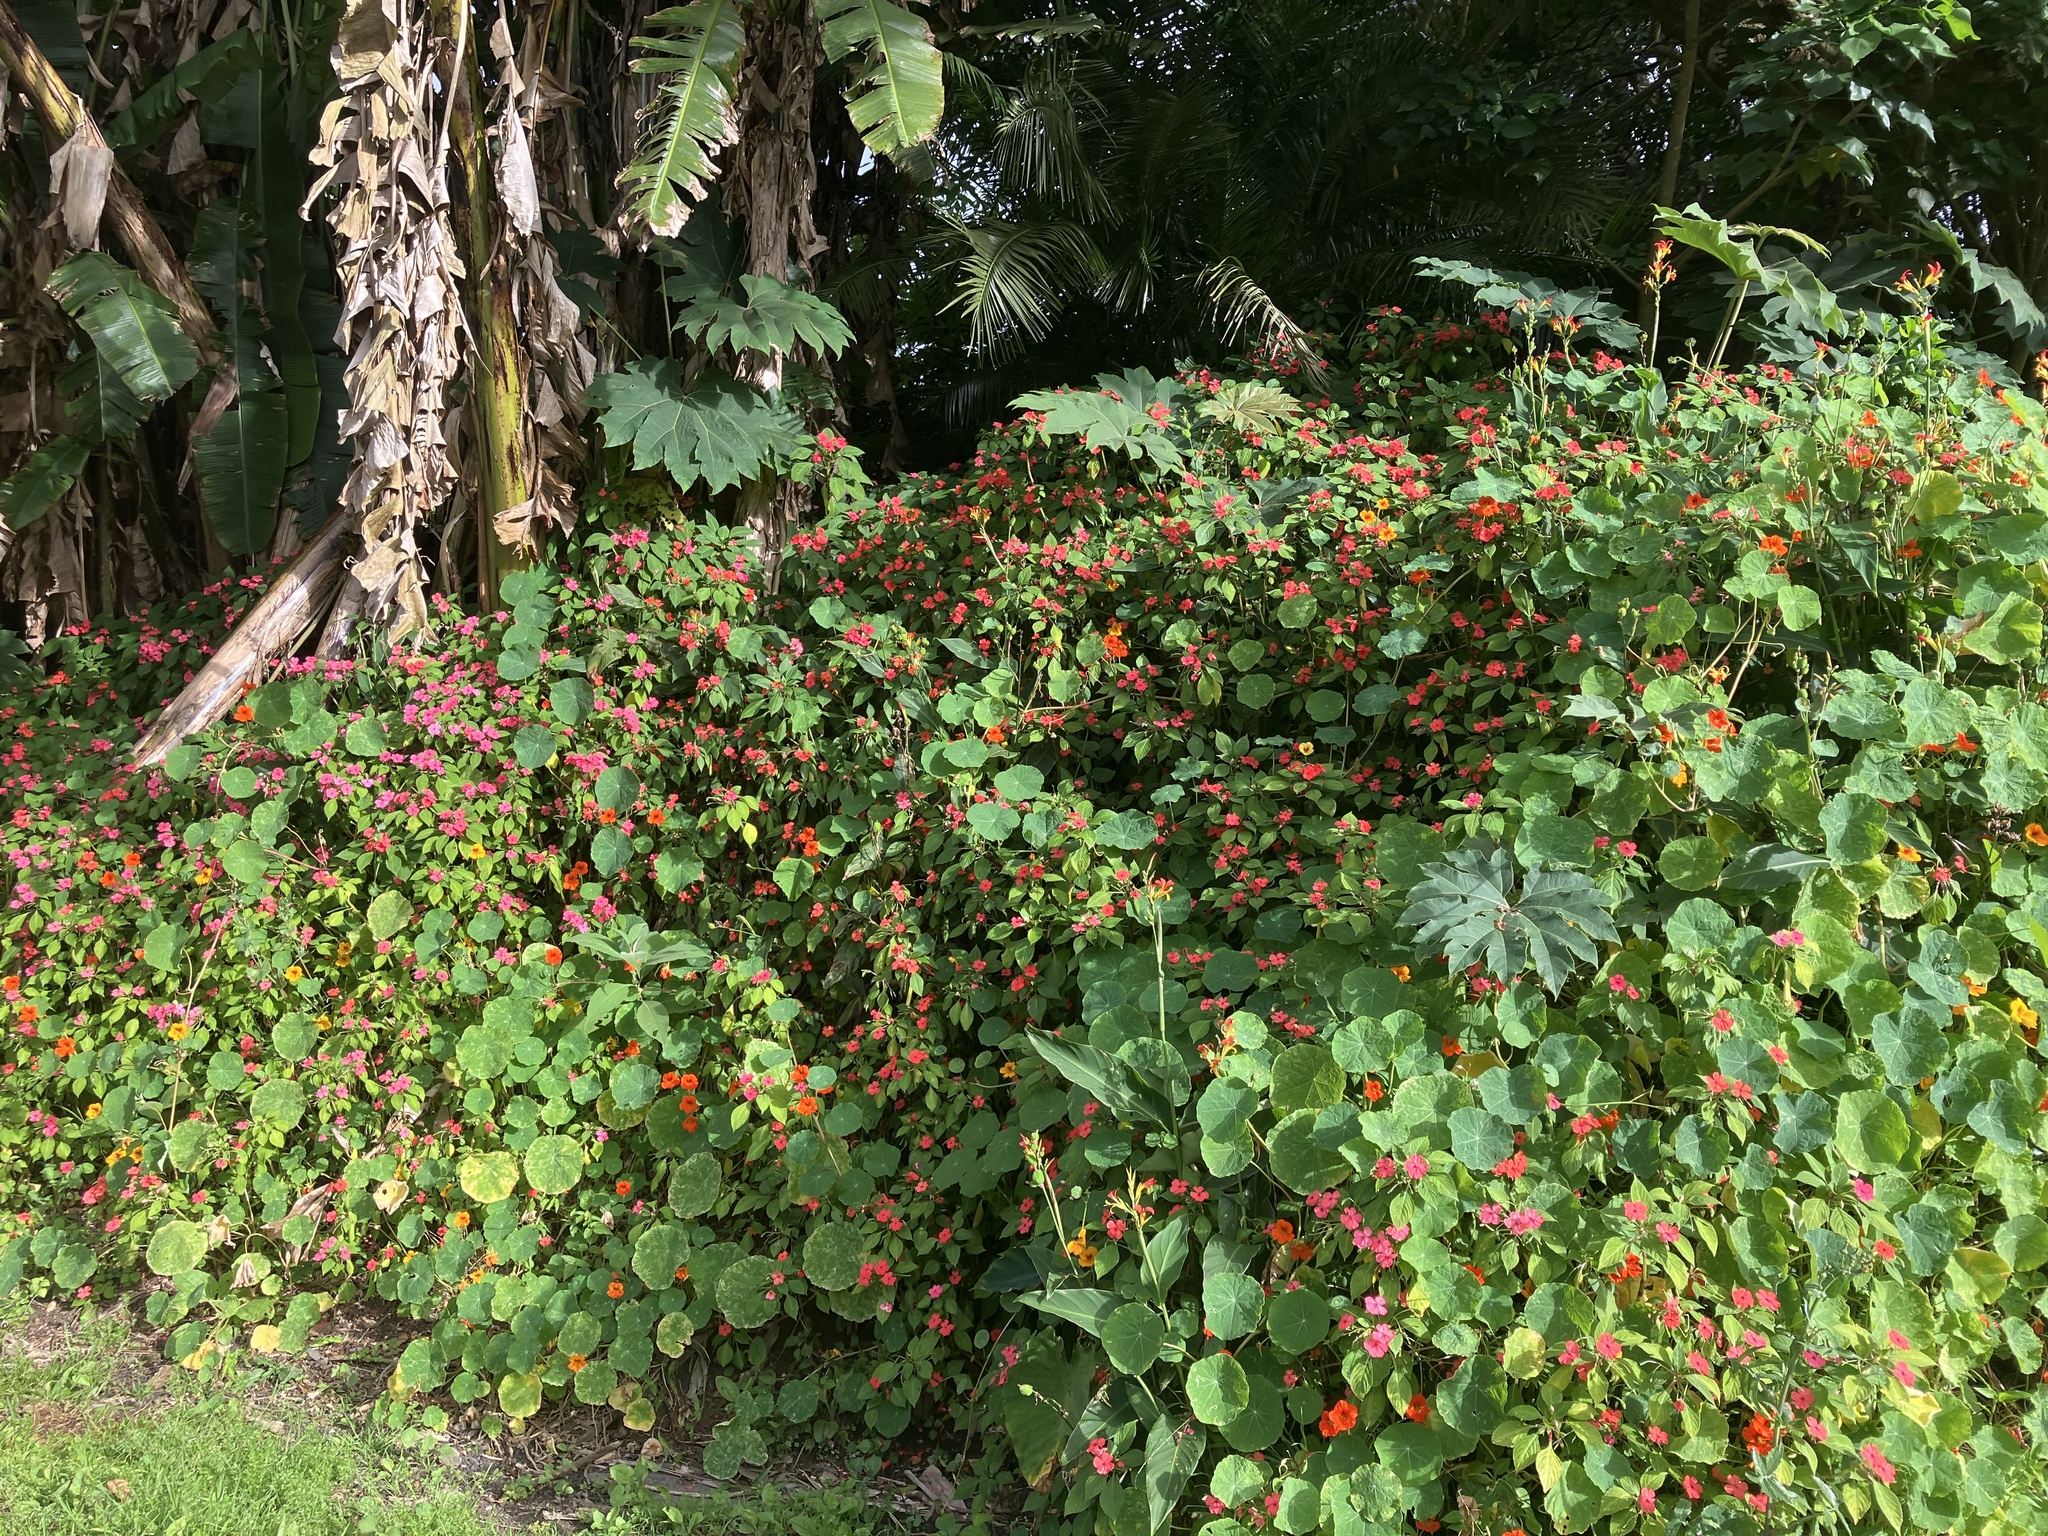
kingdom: Plantae
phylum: Tracheophyta
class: Magnoliopsida
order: Ericales
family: Balsaminaceae
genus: Impatiens
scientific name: Impatiens walleriana
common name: Buzzy lizzy
